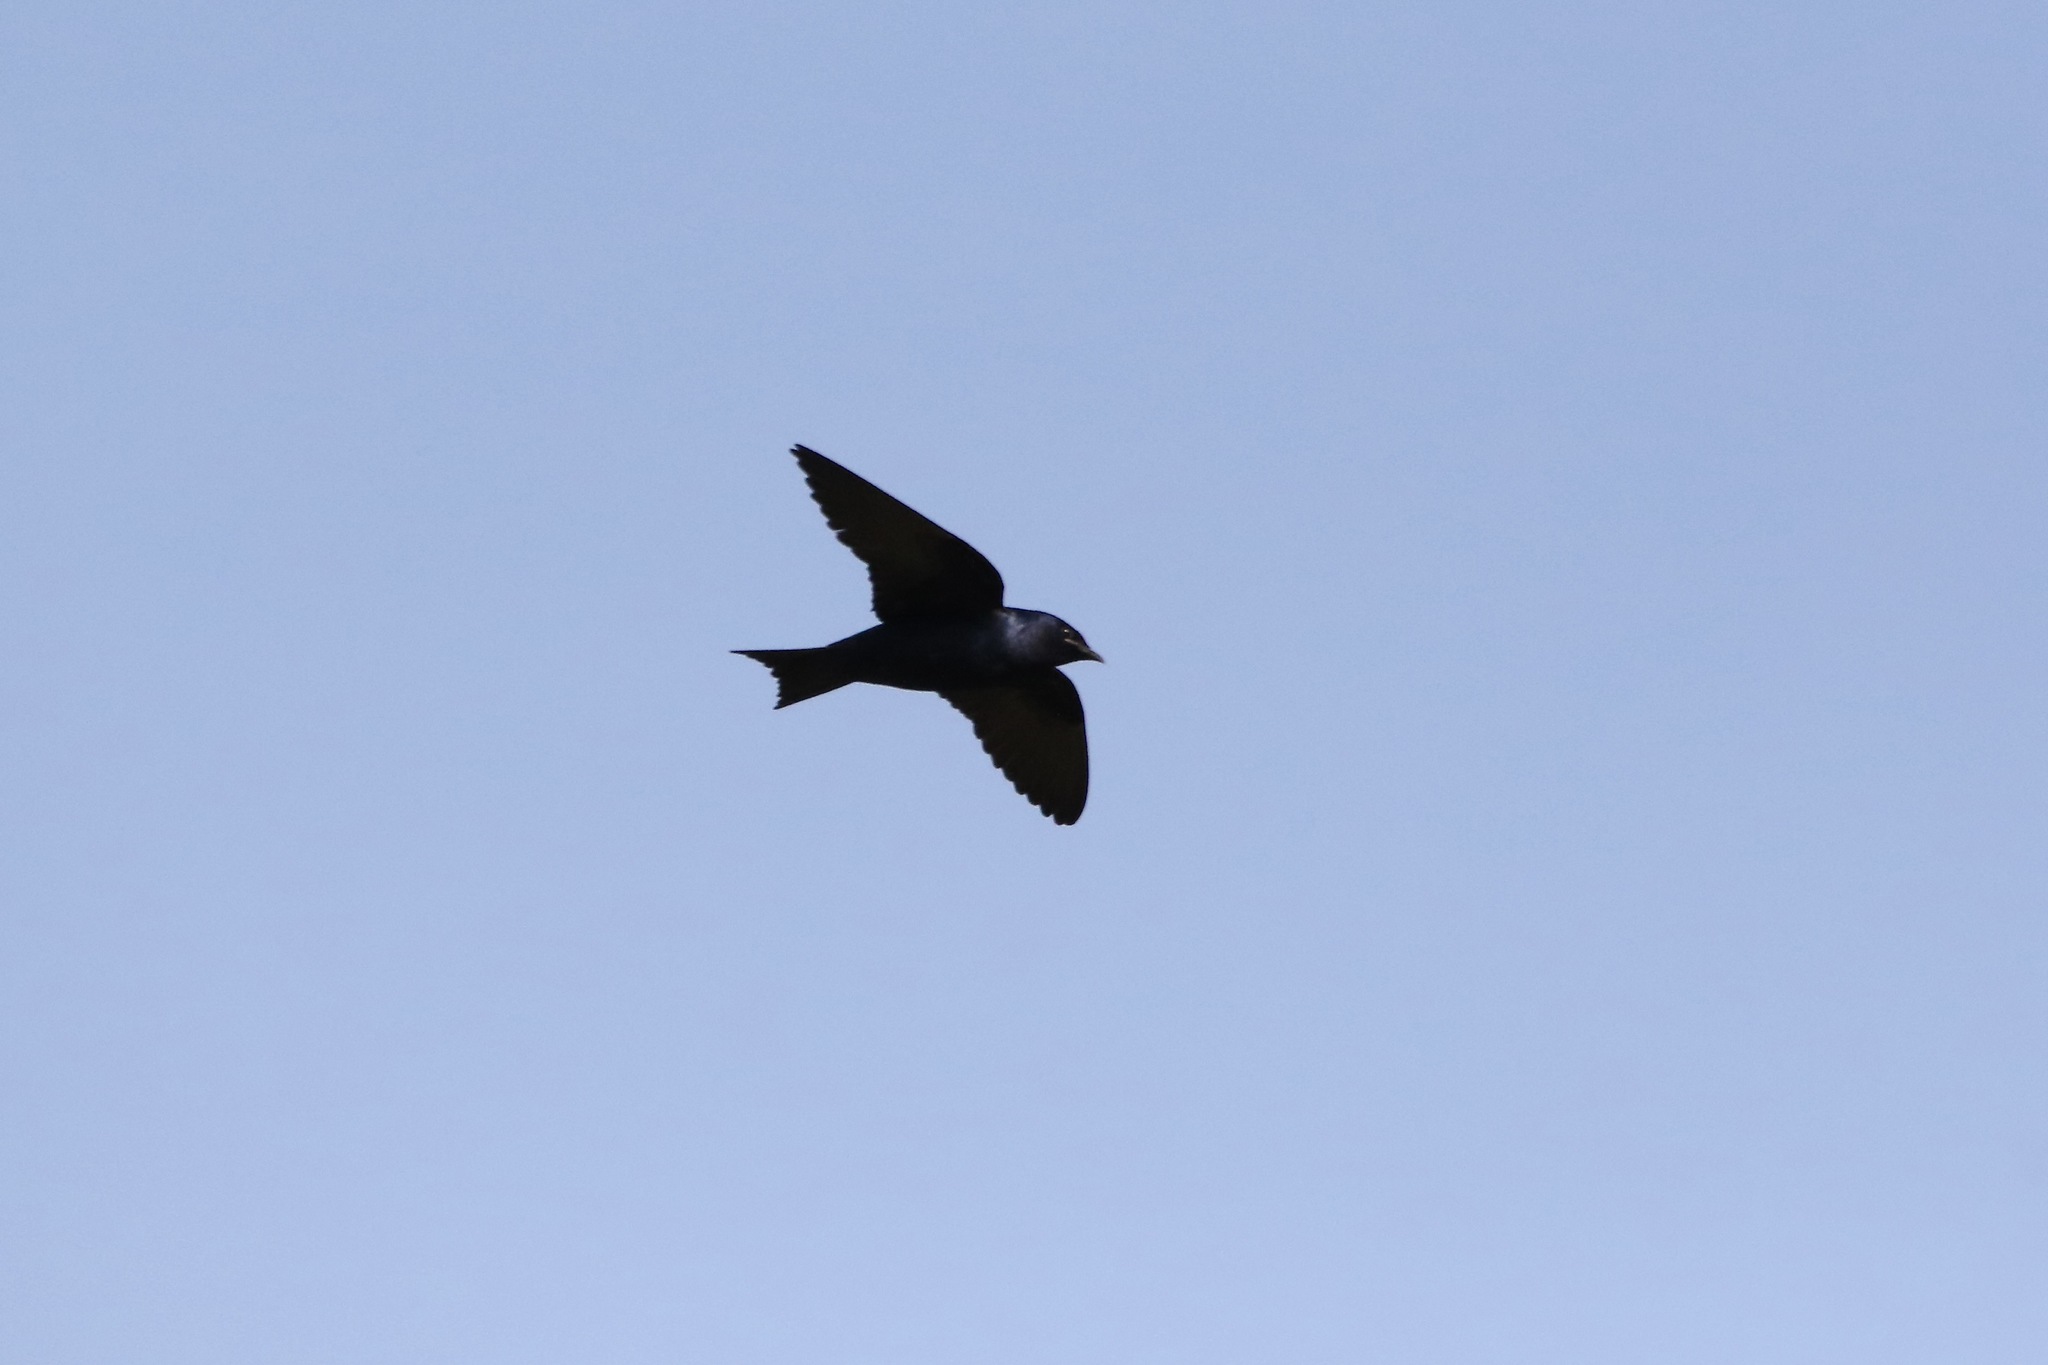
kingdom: Animalia
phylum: Chordata
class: Aves
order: Passeriformes
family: Hirundinidae
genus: Progne
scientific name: Progne subis
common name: Purple martin
